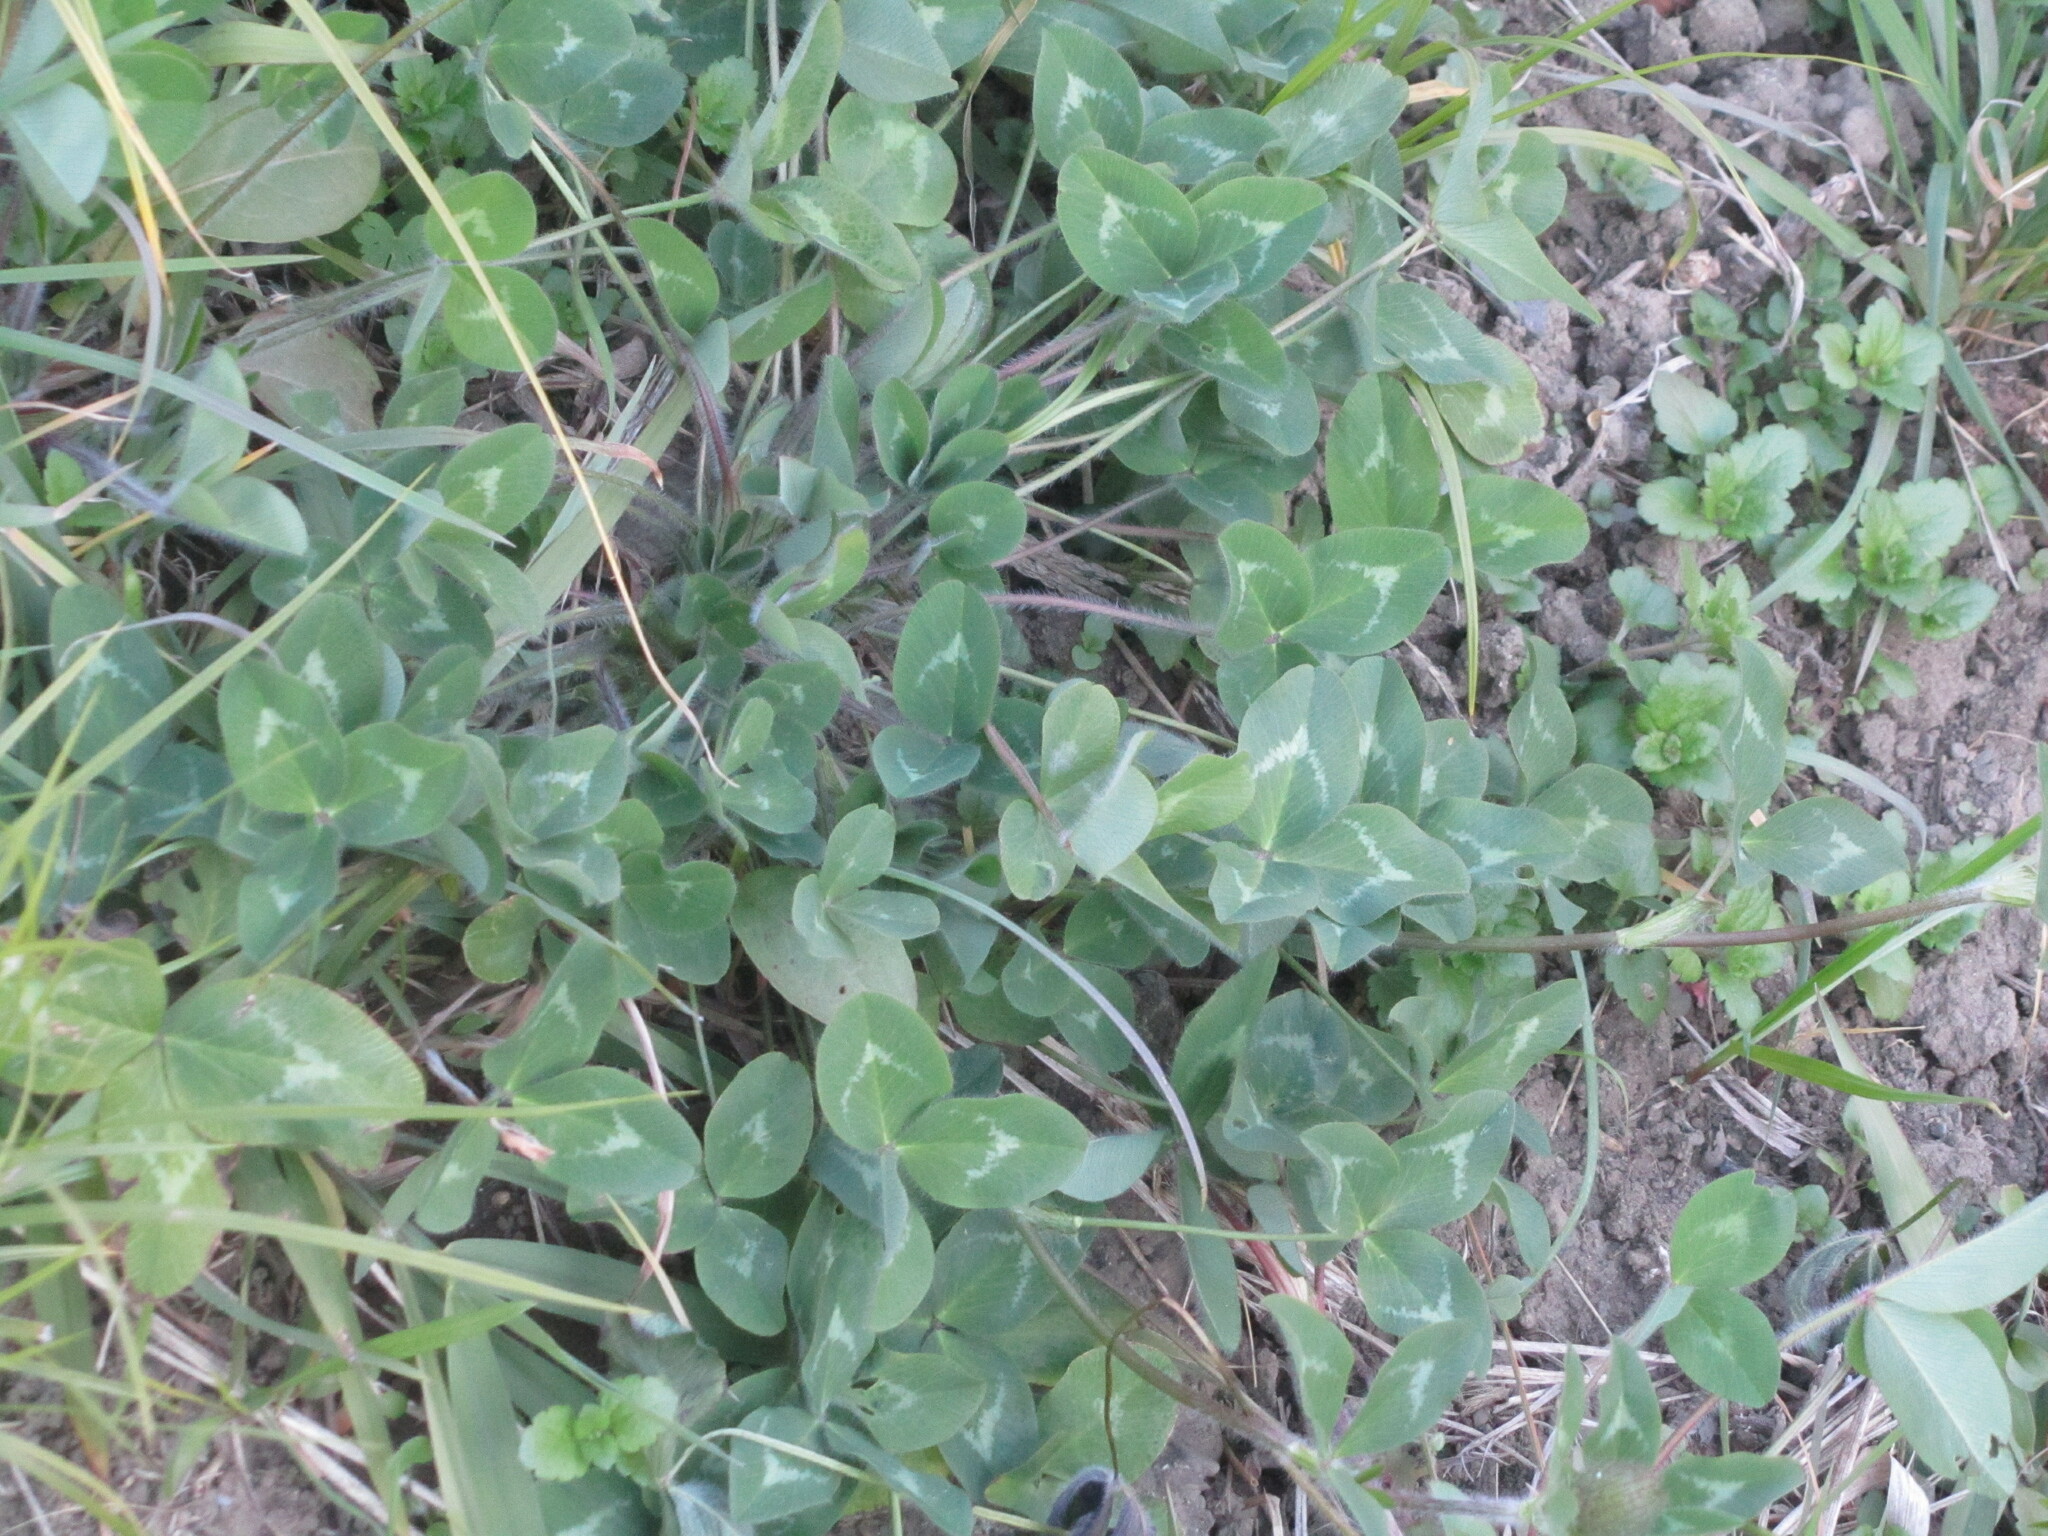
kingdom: Plantae
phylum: Tracheophyta
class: Magnoliopsida
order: Fabales
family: Fabaceae
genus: Trifolium
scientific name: Trifolium pratense
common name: Red clover
